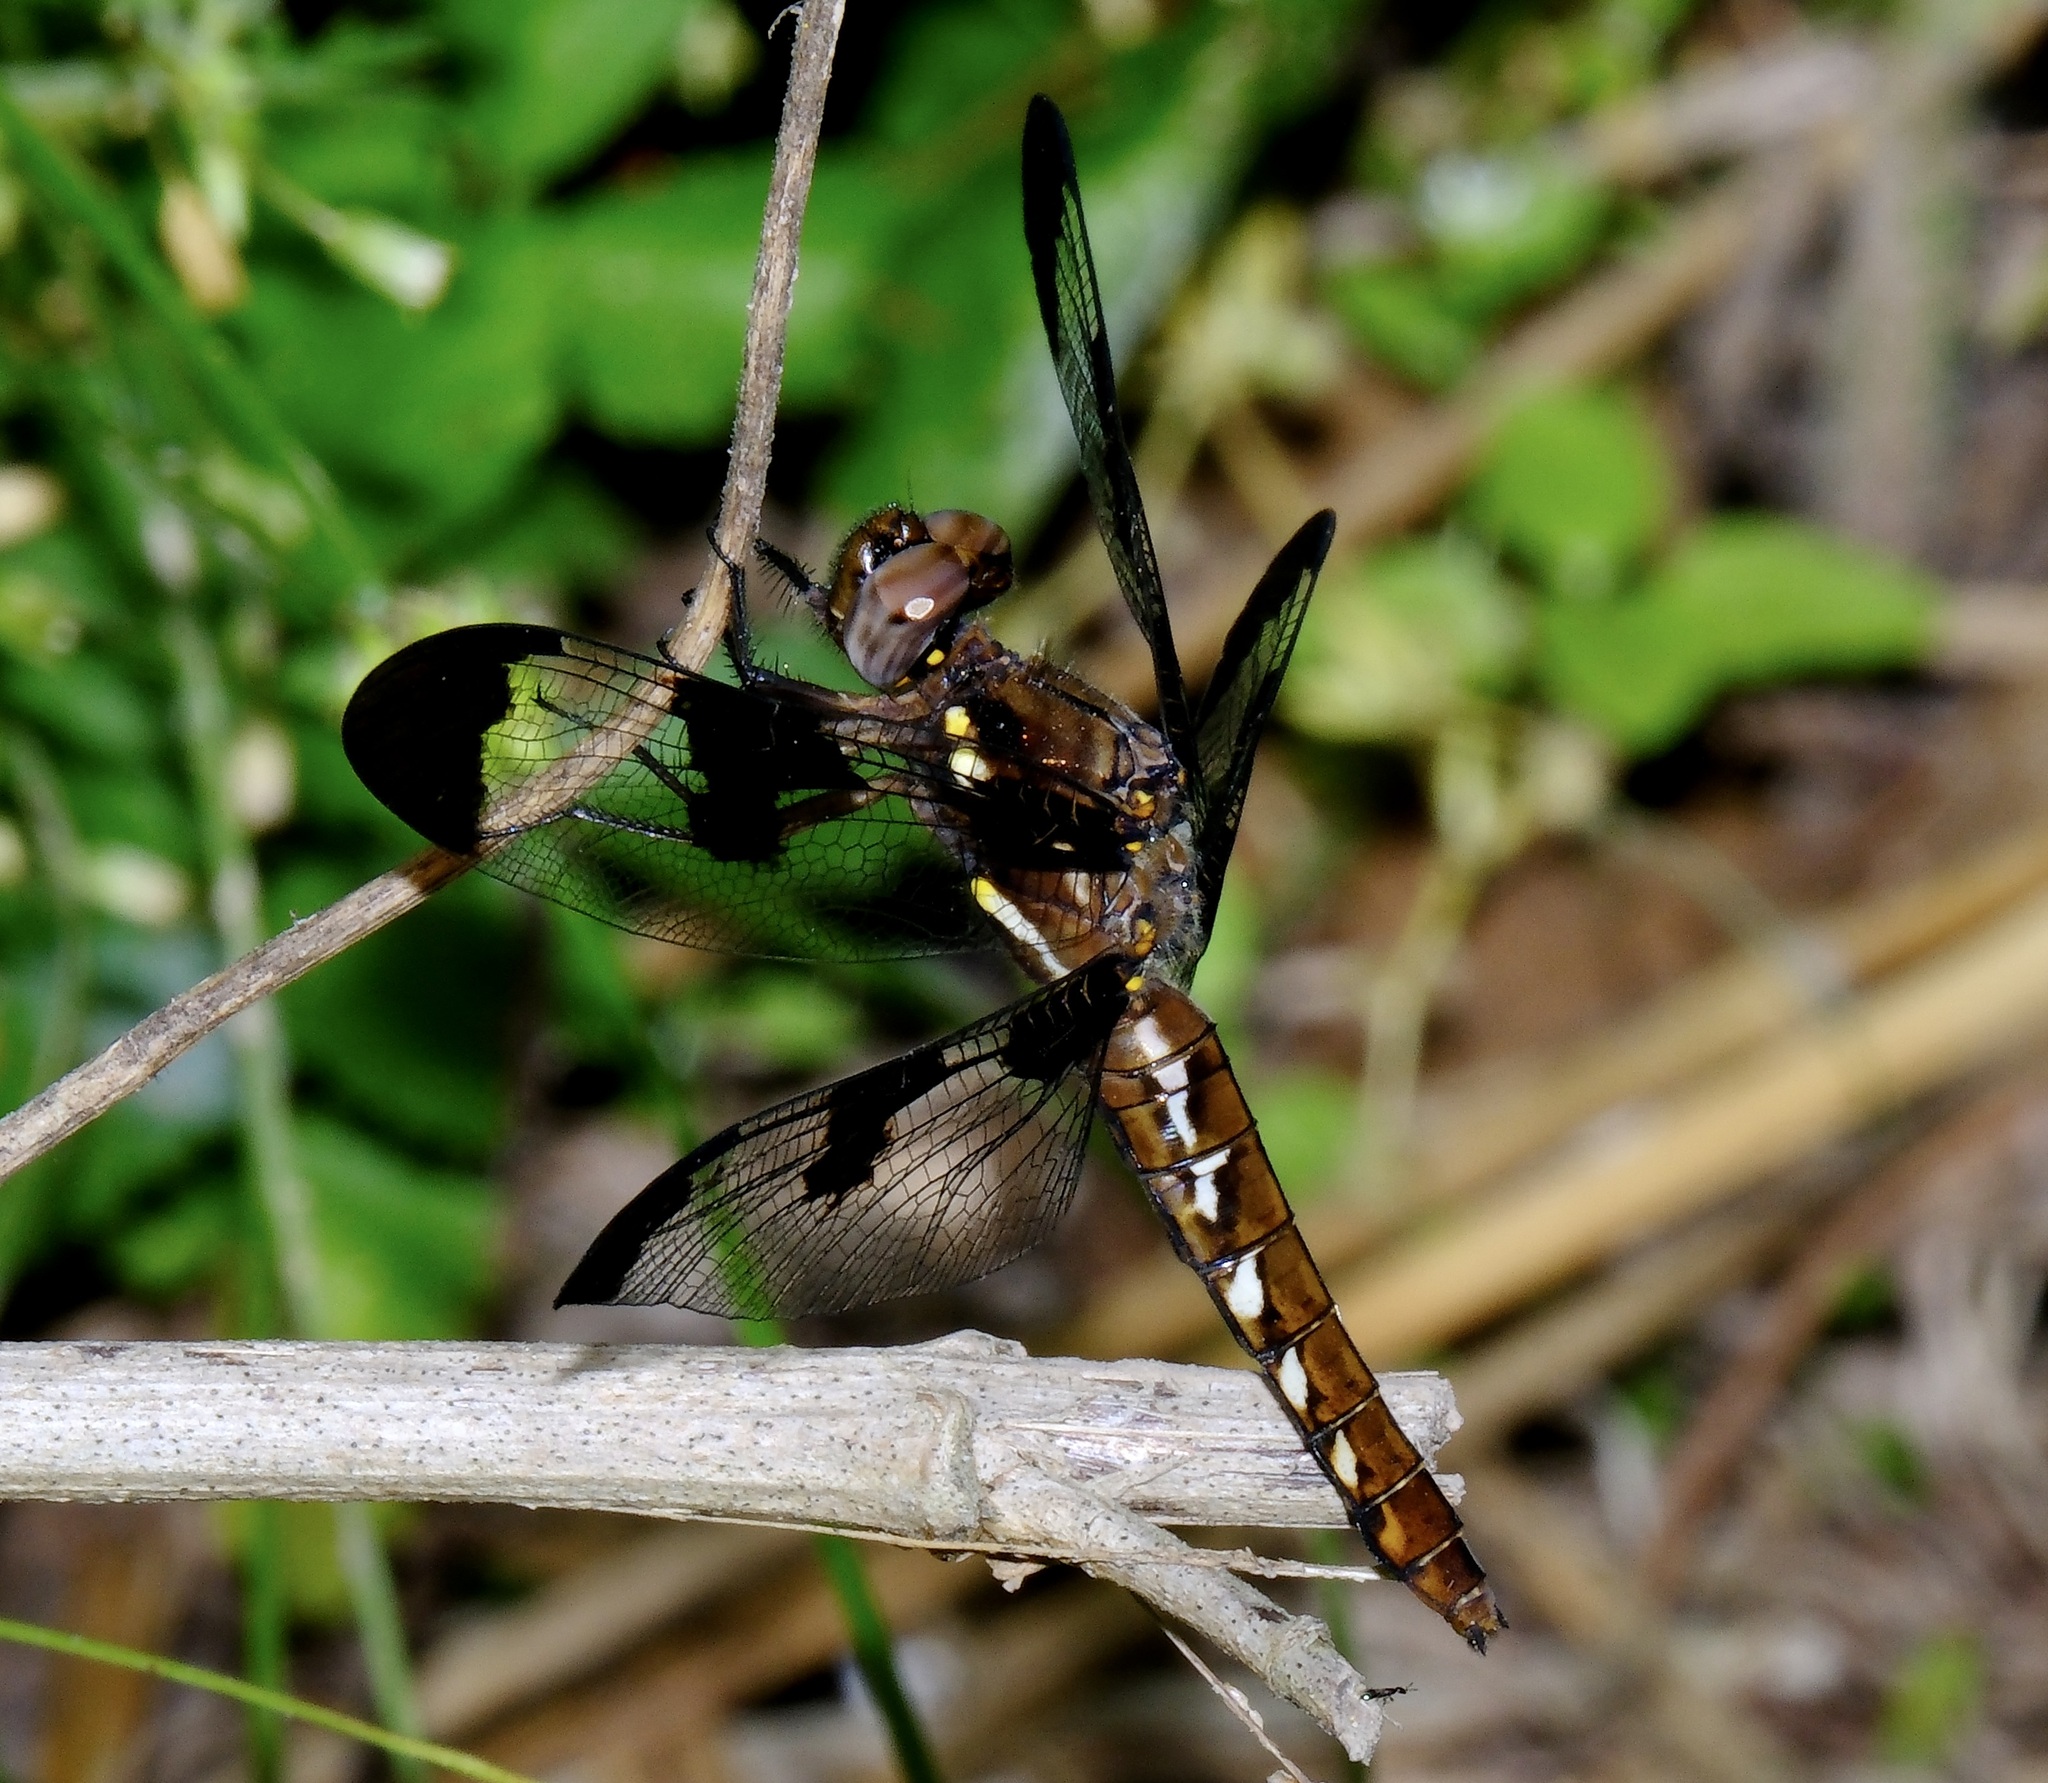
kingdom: Animalia
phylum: Arthropoda
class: Insecta
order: Odonata
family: Libellulidae
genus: Plathemis
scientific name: Plathemis lydia
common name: Common whitetail
